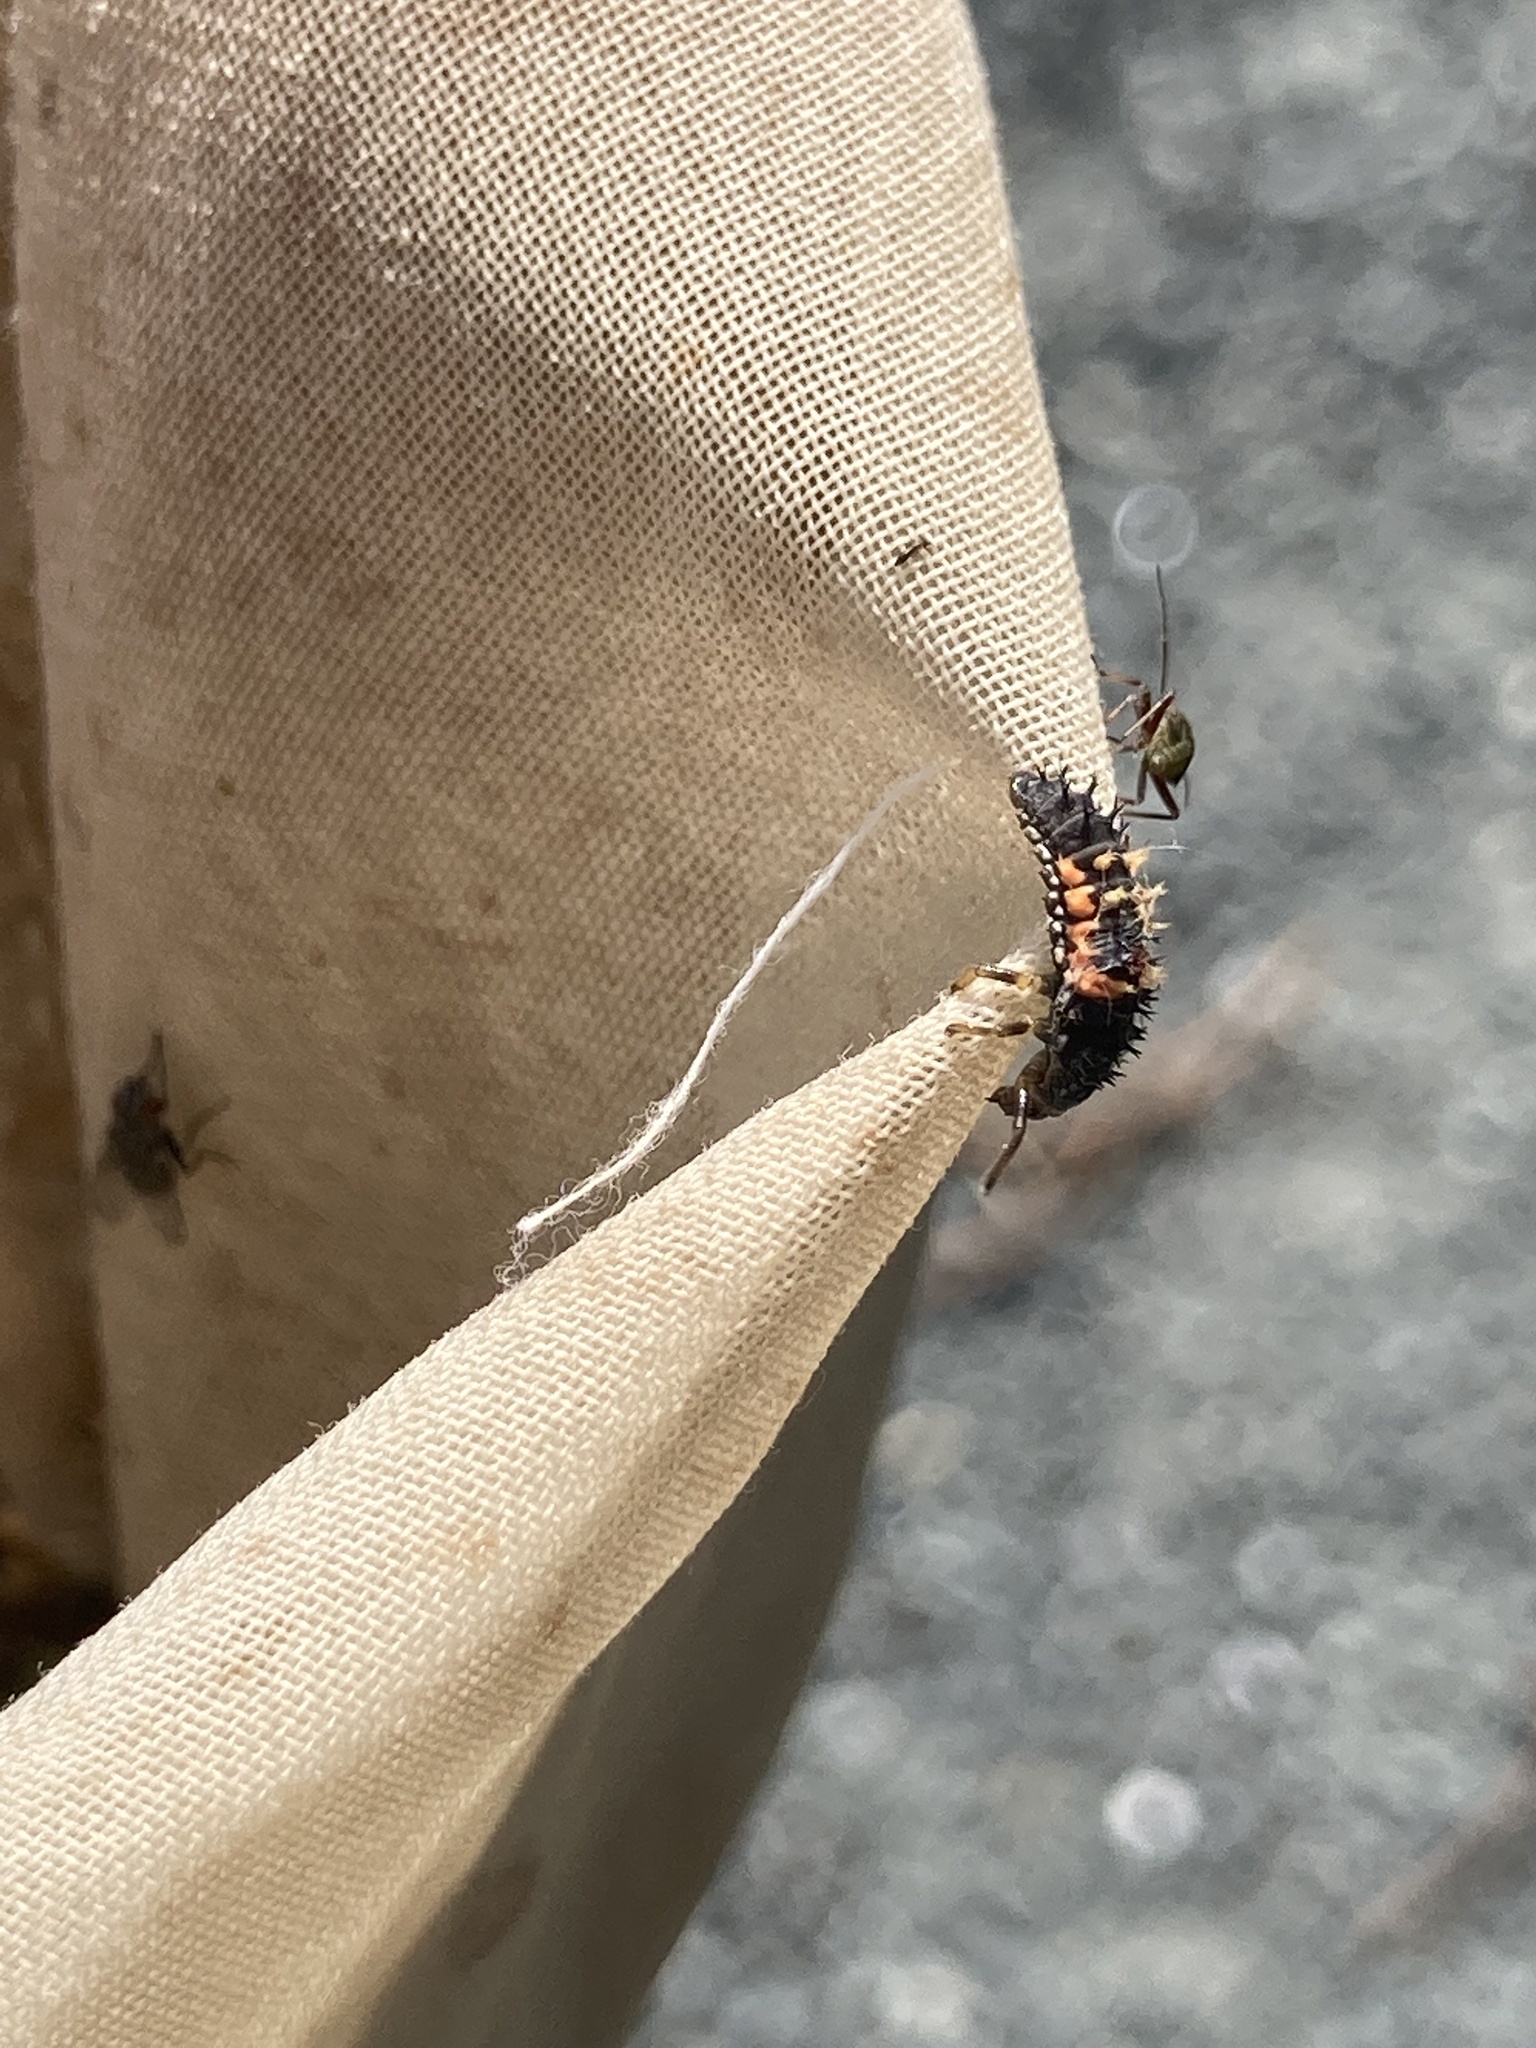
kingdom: Animalia
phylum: Arthropoda
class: Insecta
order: Coleoptera
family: Coccinellidae
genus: Harmonia
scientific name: Harmonia axyridis
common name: Harlequin ladybird
